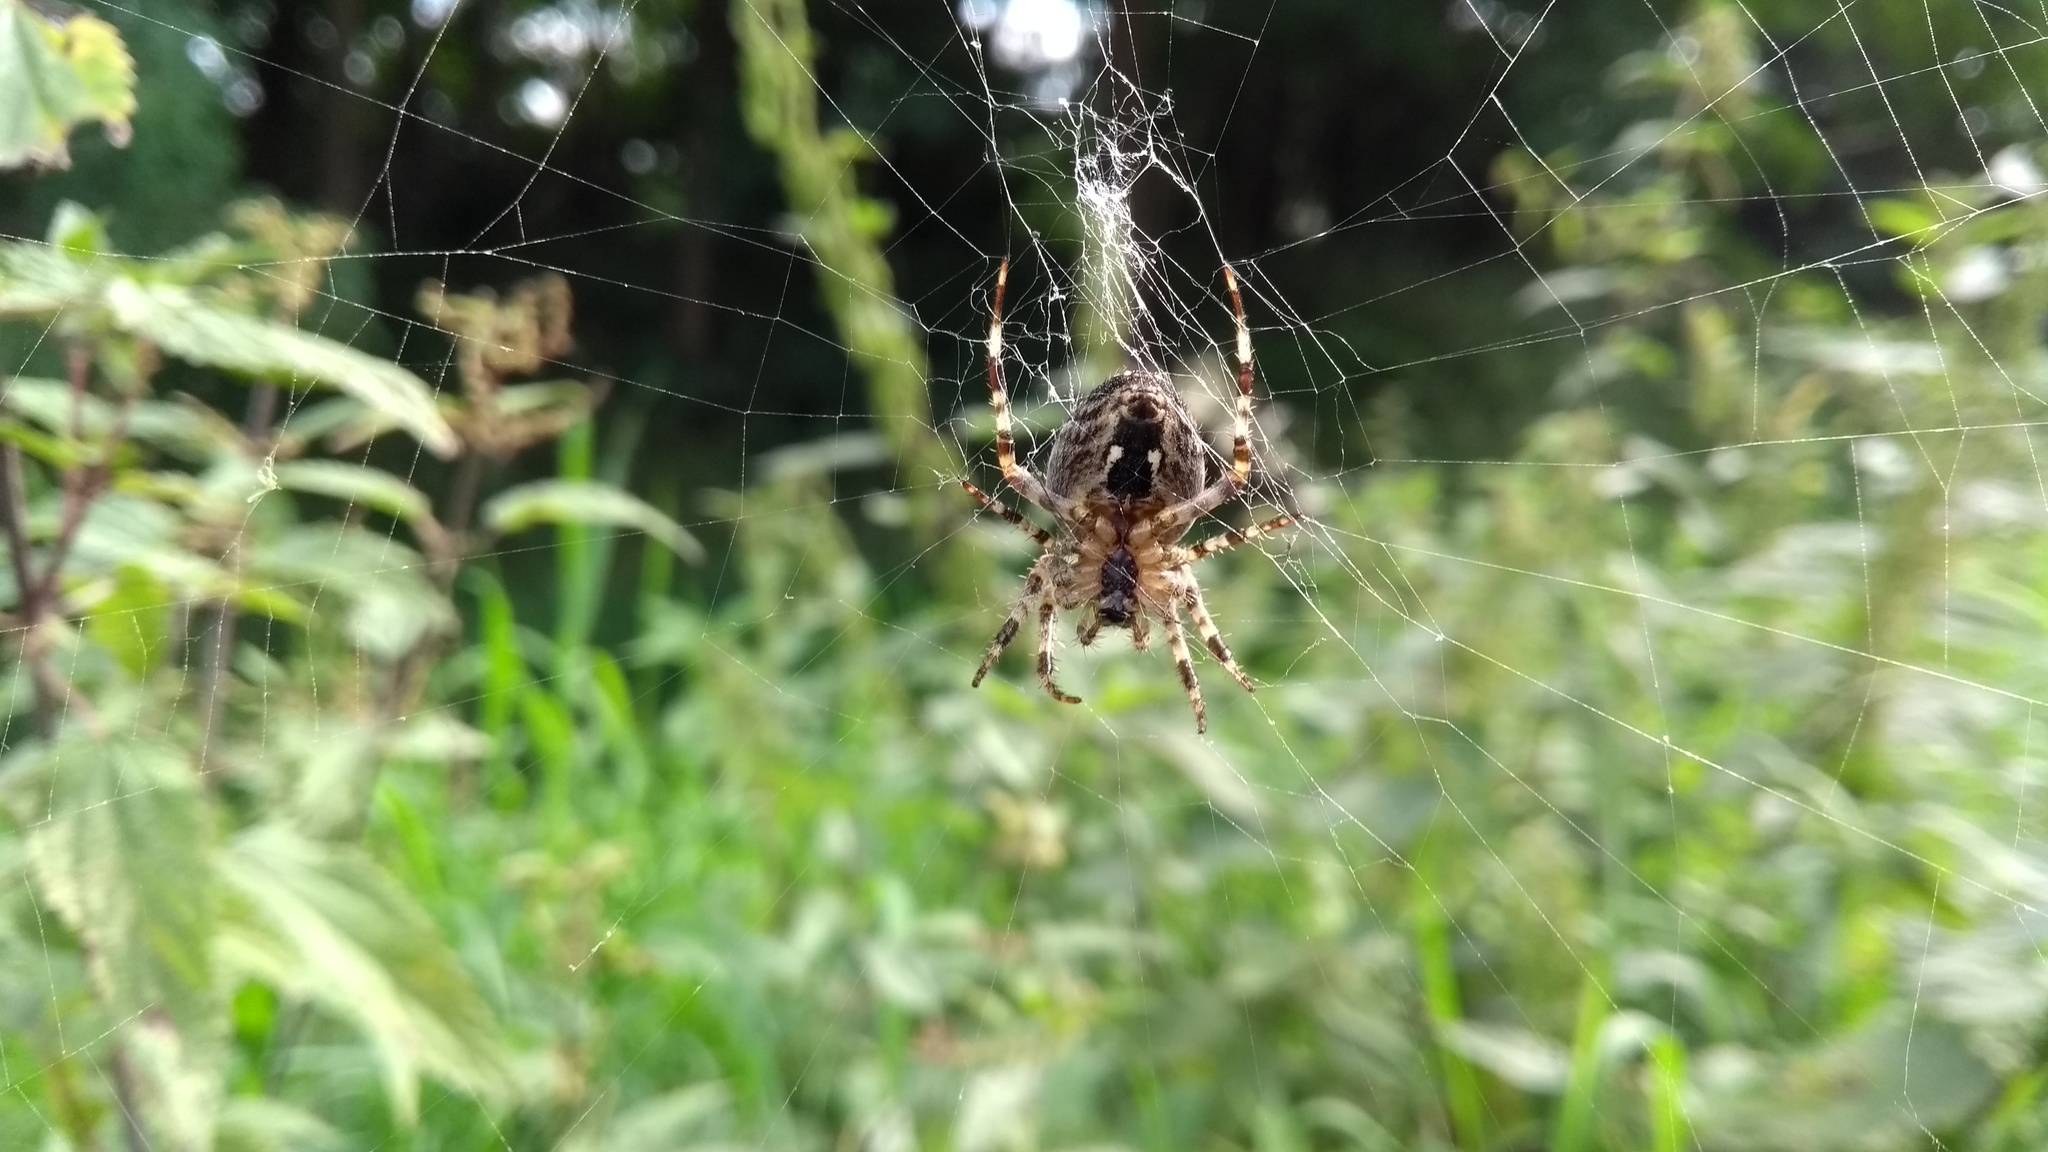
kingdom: Animalia
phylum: Arthropoda
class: Arachnida
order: Araneae
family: Araneidae
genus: Araneus
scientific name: Araneus diadematus
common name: Cross orbweaver
